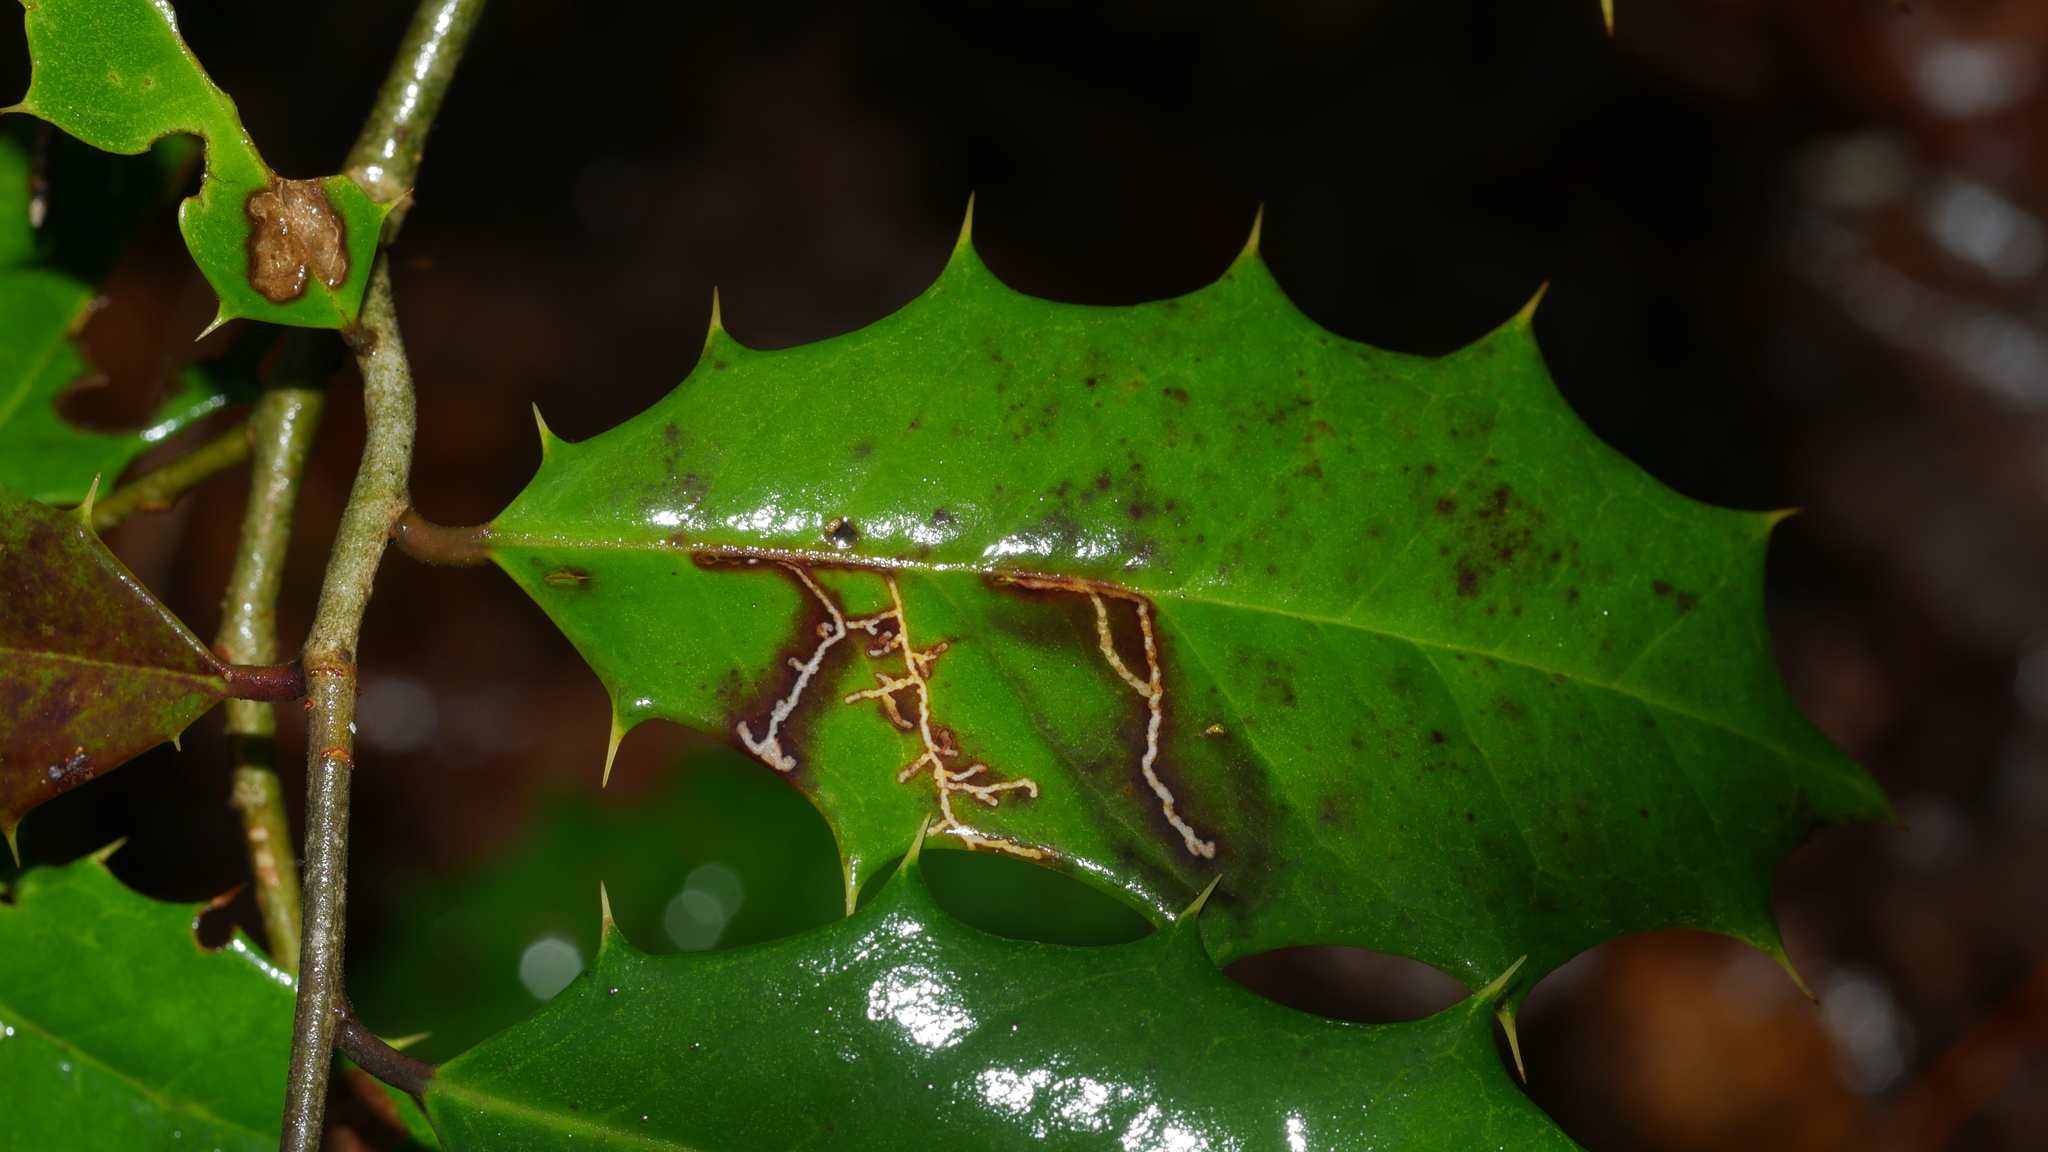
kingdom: Animalia
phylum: Arthropoda
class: Insecta
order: Lepidoptera
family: Tortricidae
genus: Rhopobota
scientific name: Rhopobota
